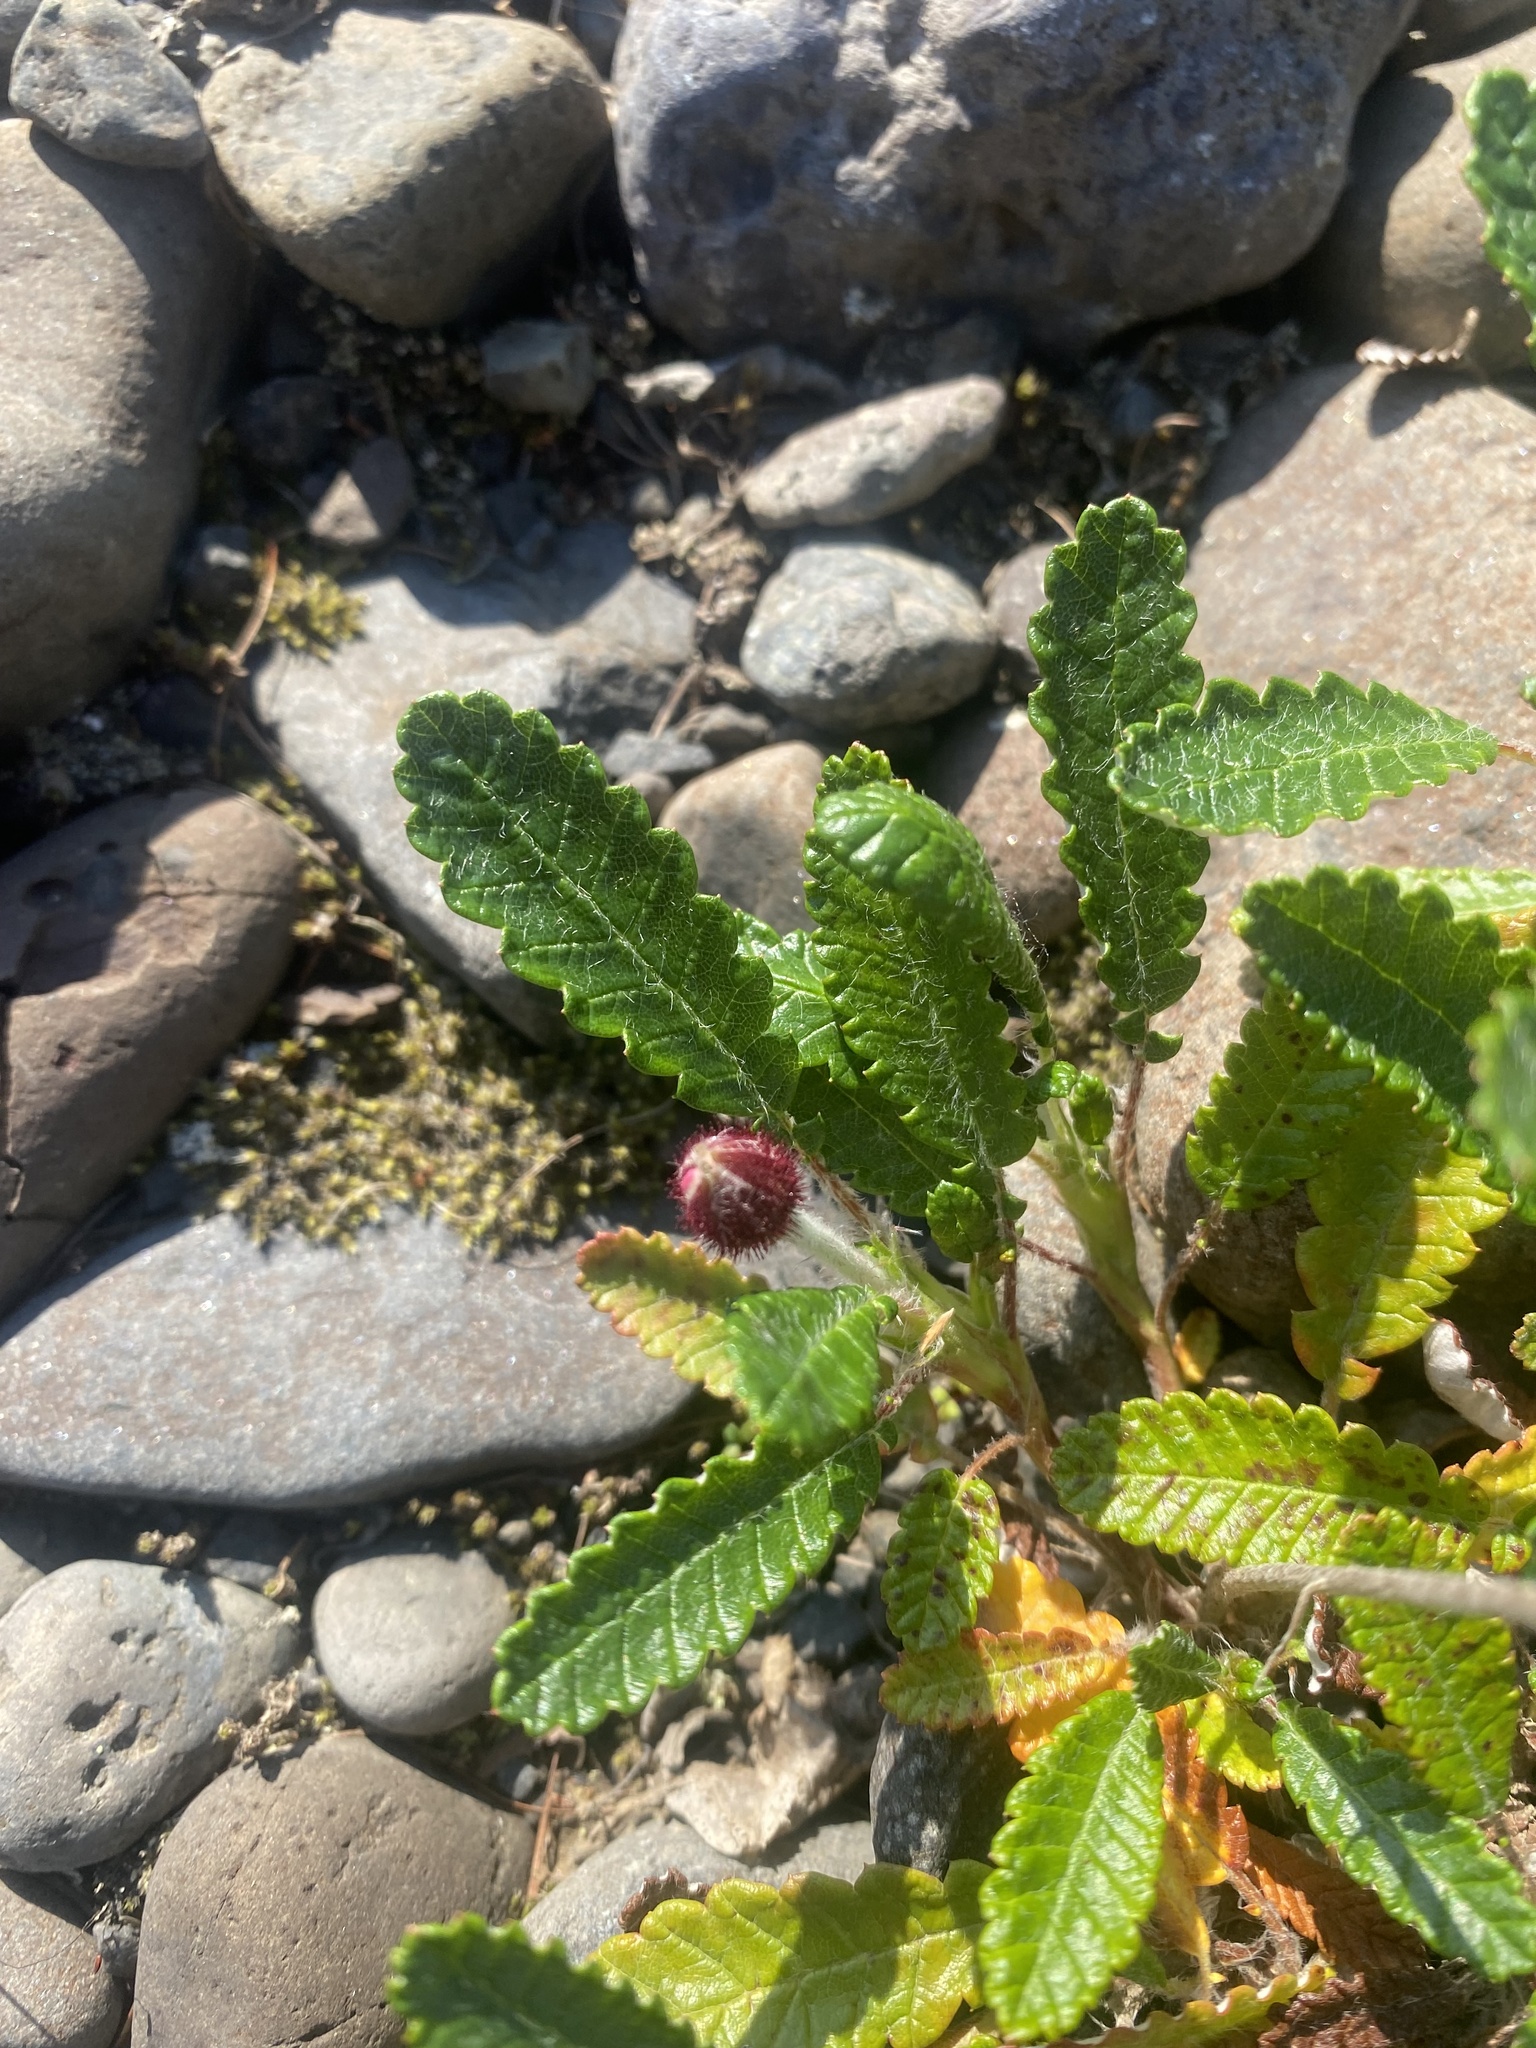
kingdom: Plantae
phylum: Tracheophyta
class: Magnoliopsida
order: Rosales
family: Rosaceae
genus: Dryas
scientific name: Dryas grandis
